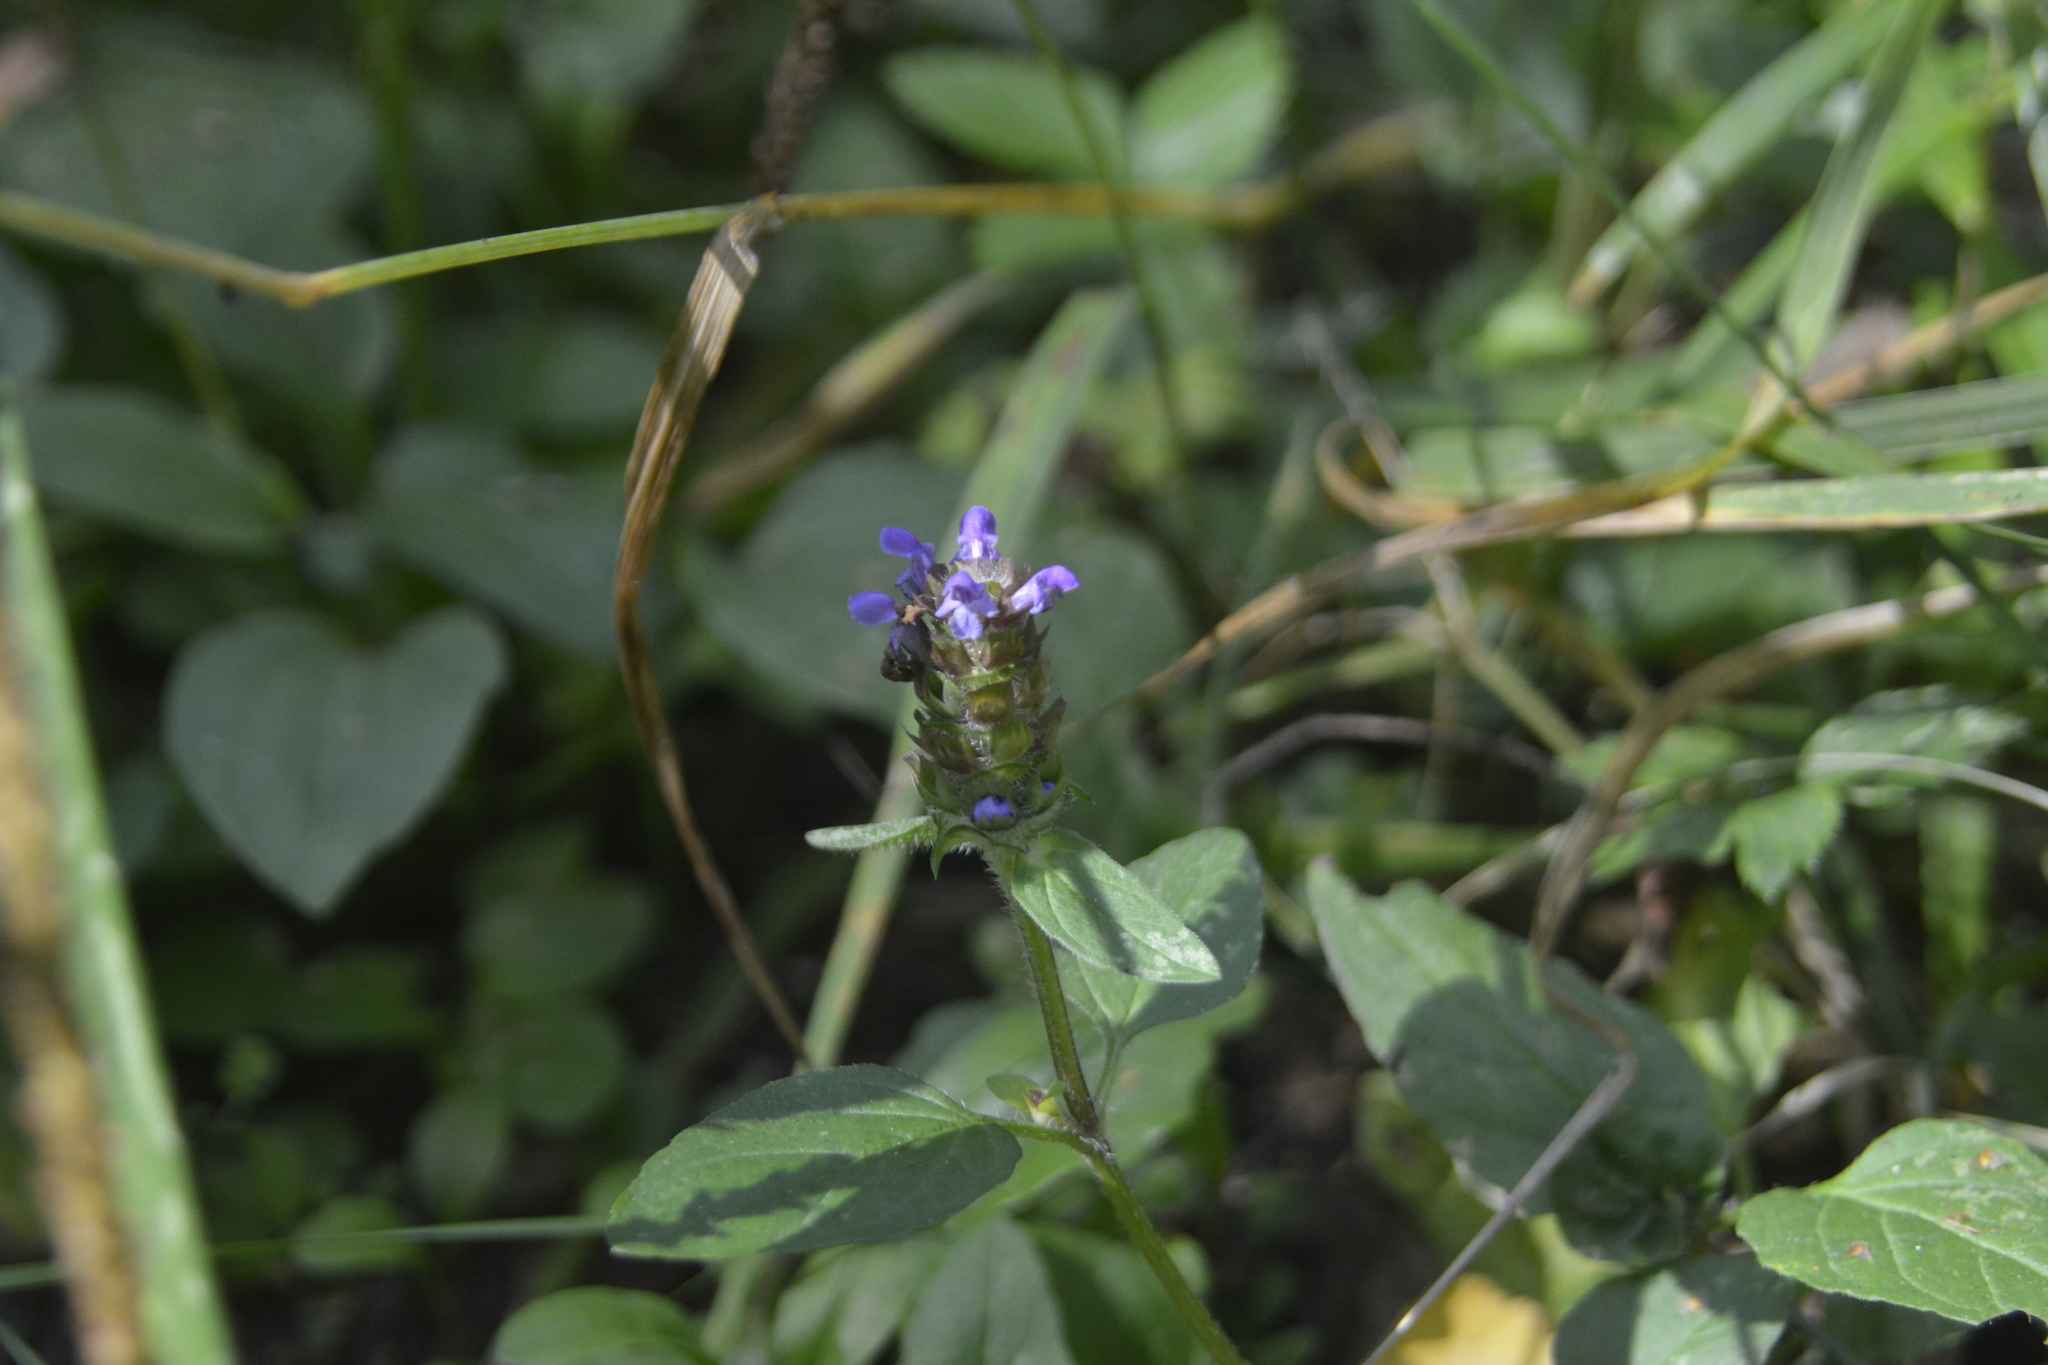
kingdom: Plantae
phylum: Tracheophyta
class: Magnoliopsida
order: Lamiales
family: Lamiaceae
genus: Prunella
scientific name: Prunella vulgaris
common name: Heal-all
